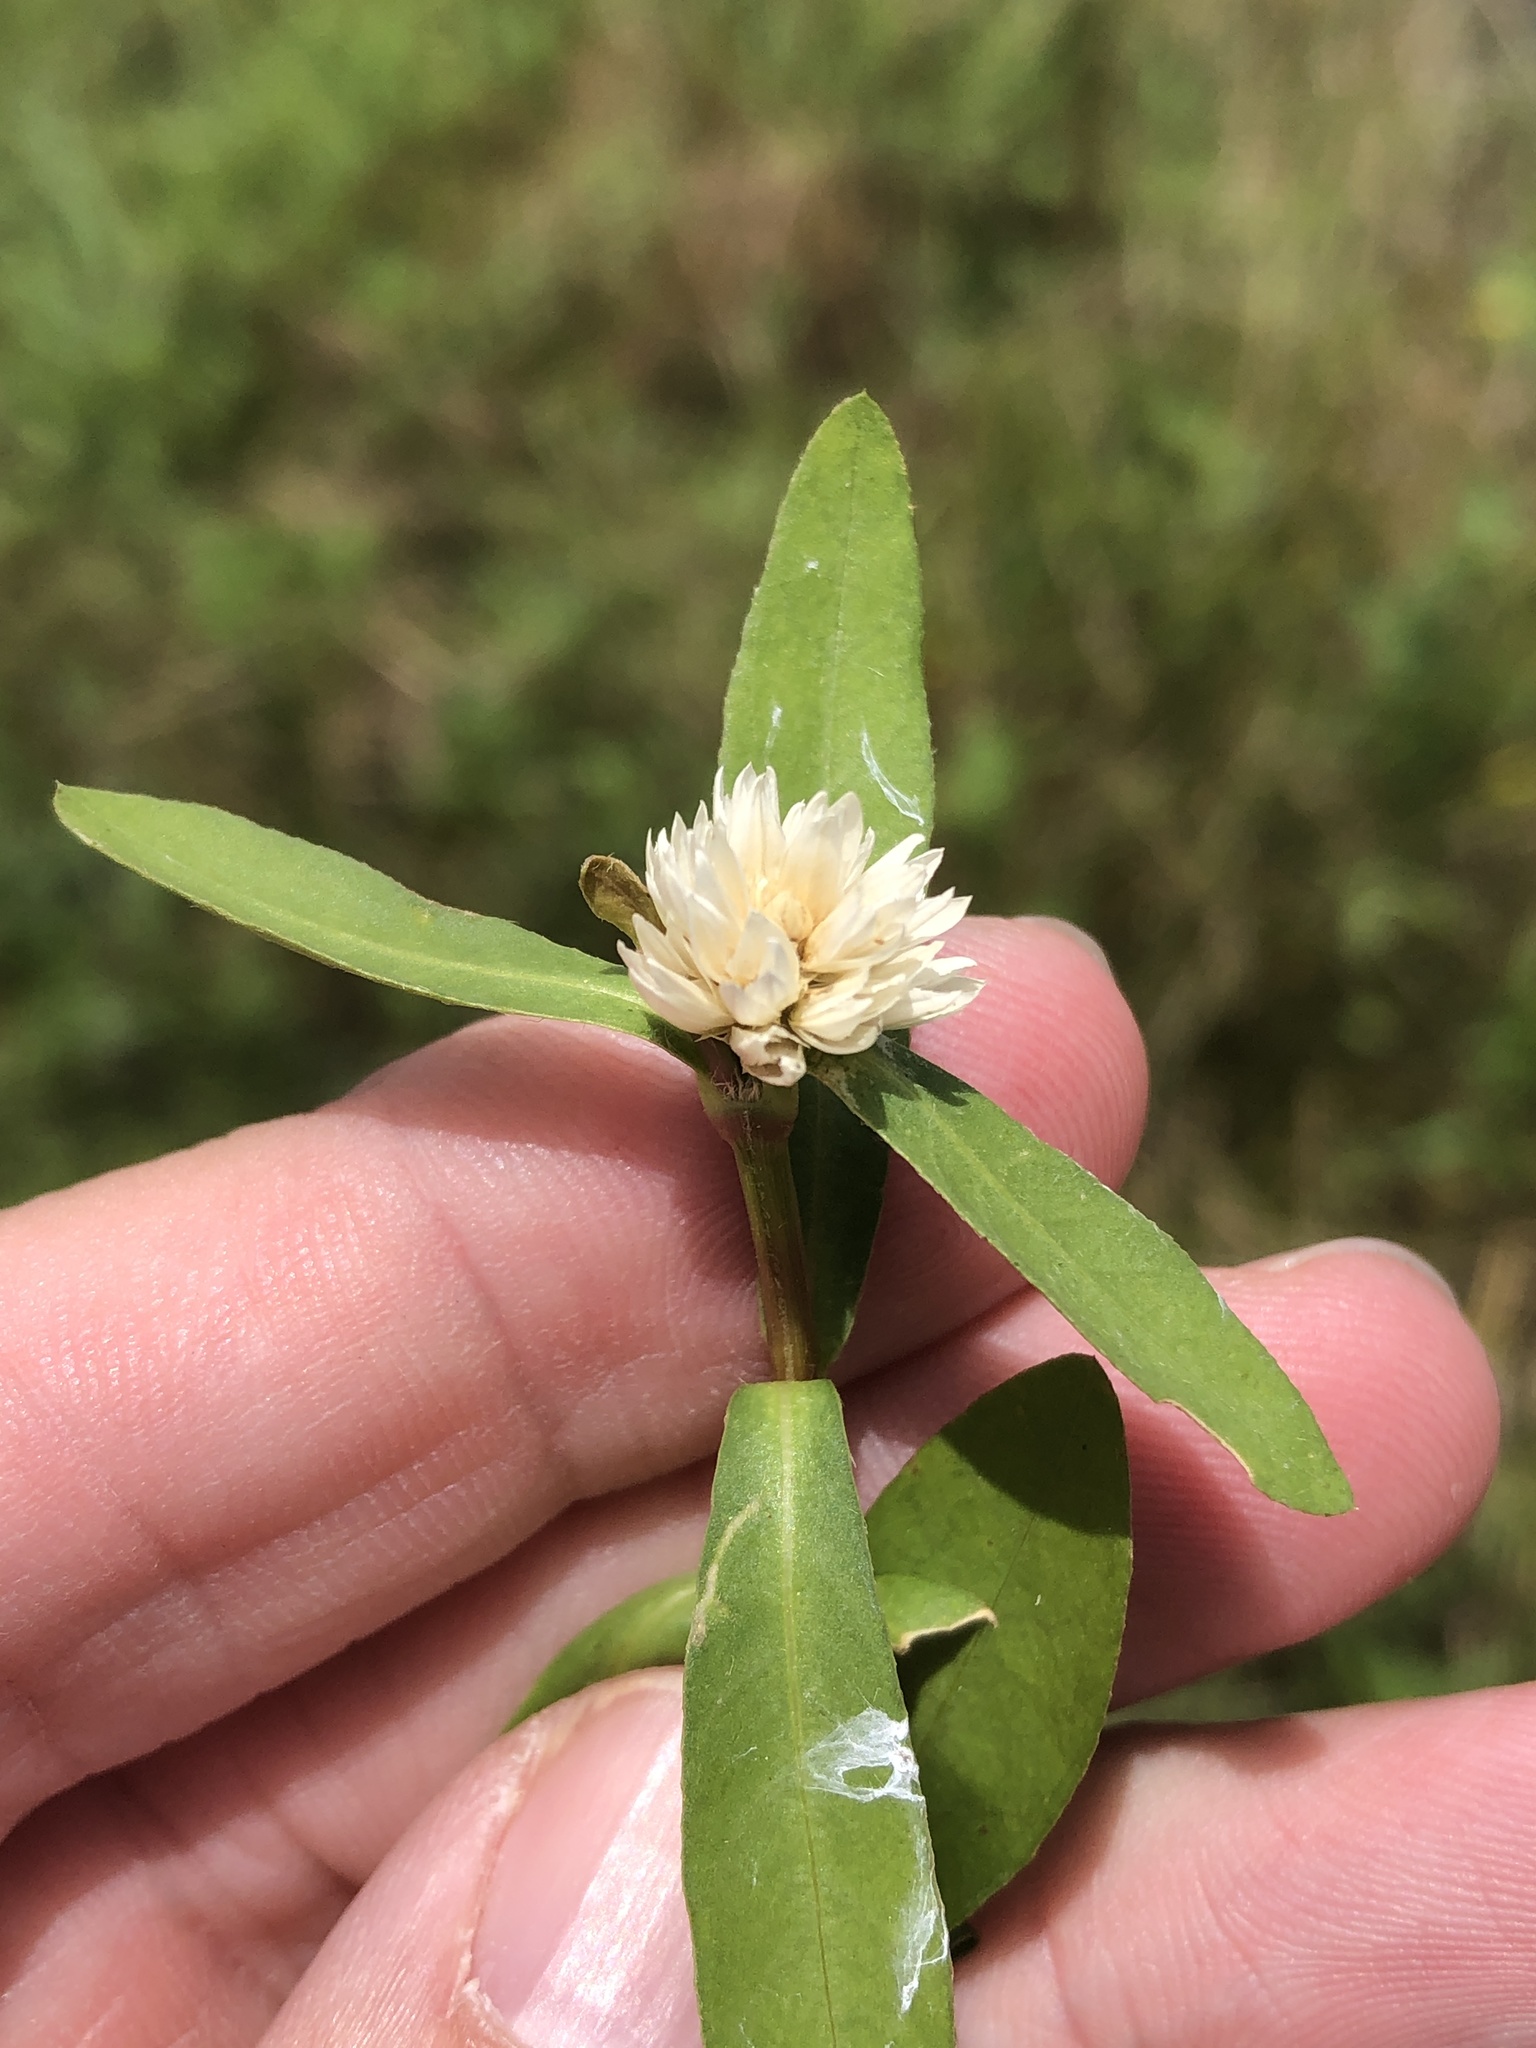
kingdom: Plantae
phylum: Tracheophyta
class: Magnoliopsida
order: Caryophyllales
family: Amaranthaceae
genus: Alternanthera
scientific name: Alternanthera philoxeroides
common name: Alligatorweed
